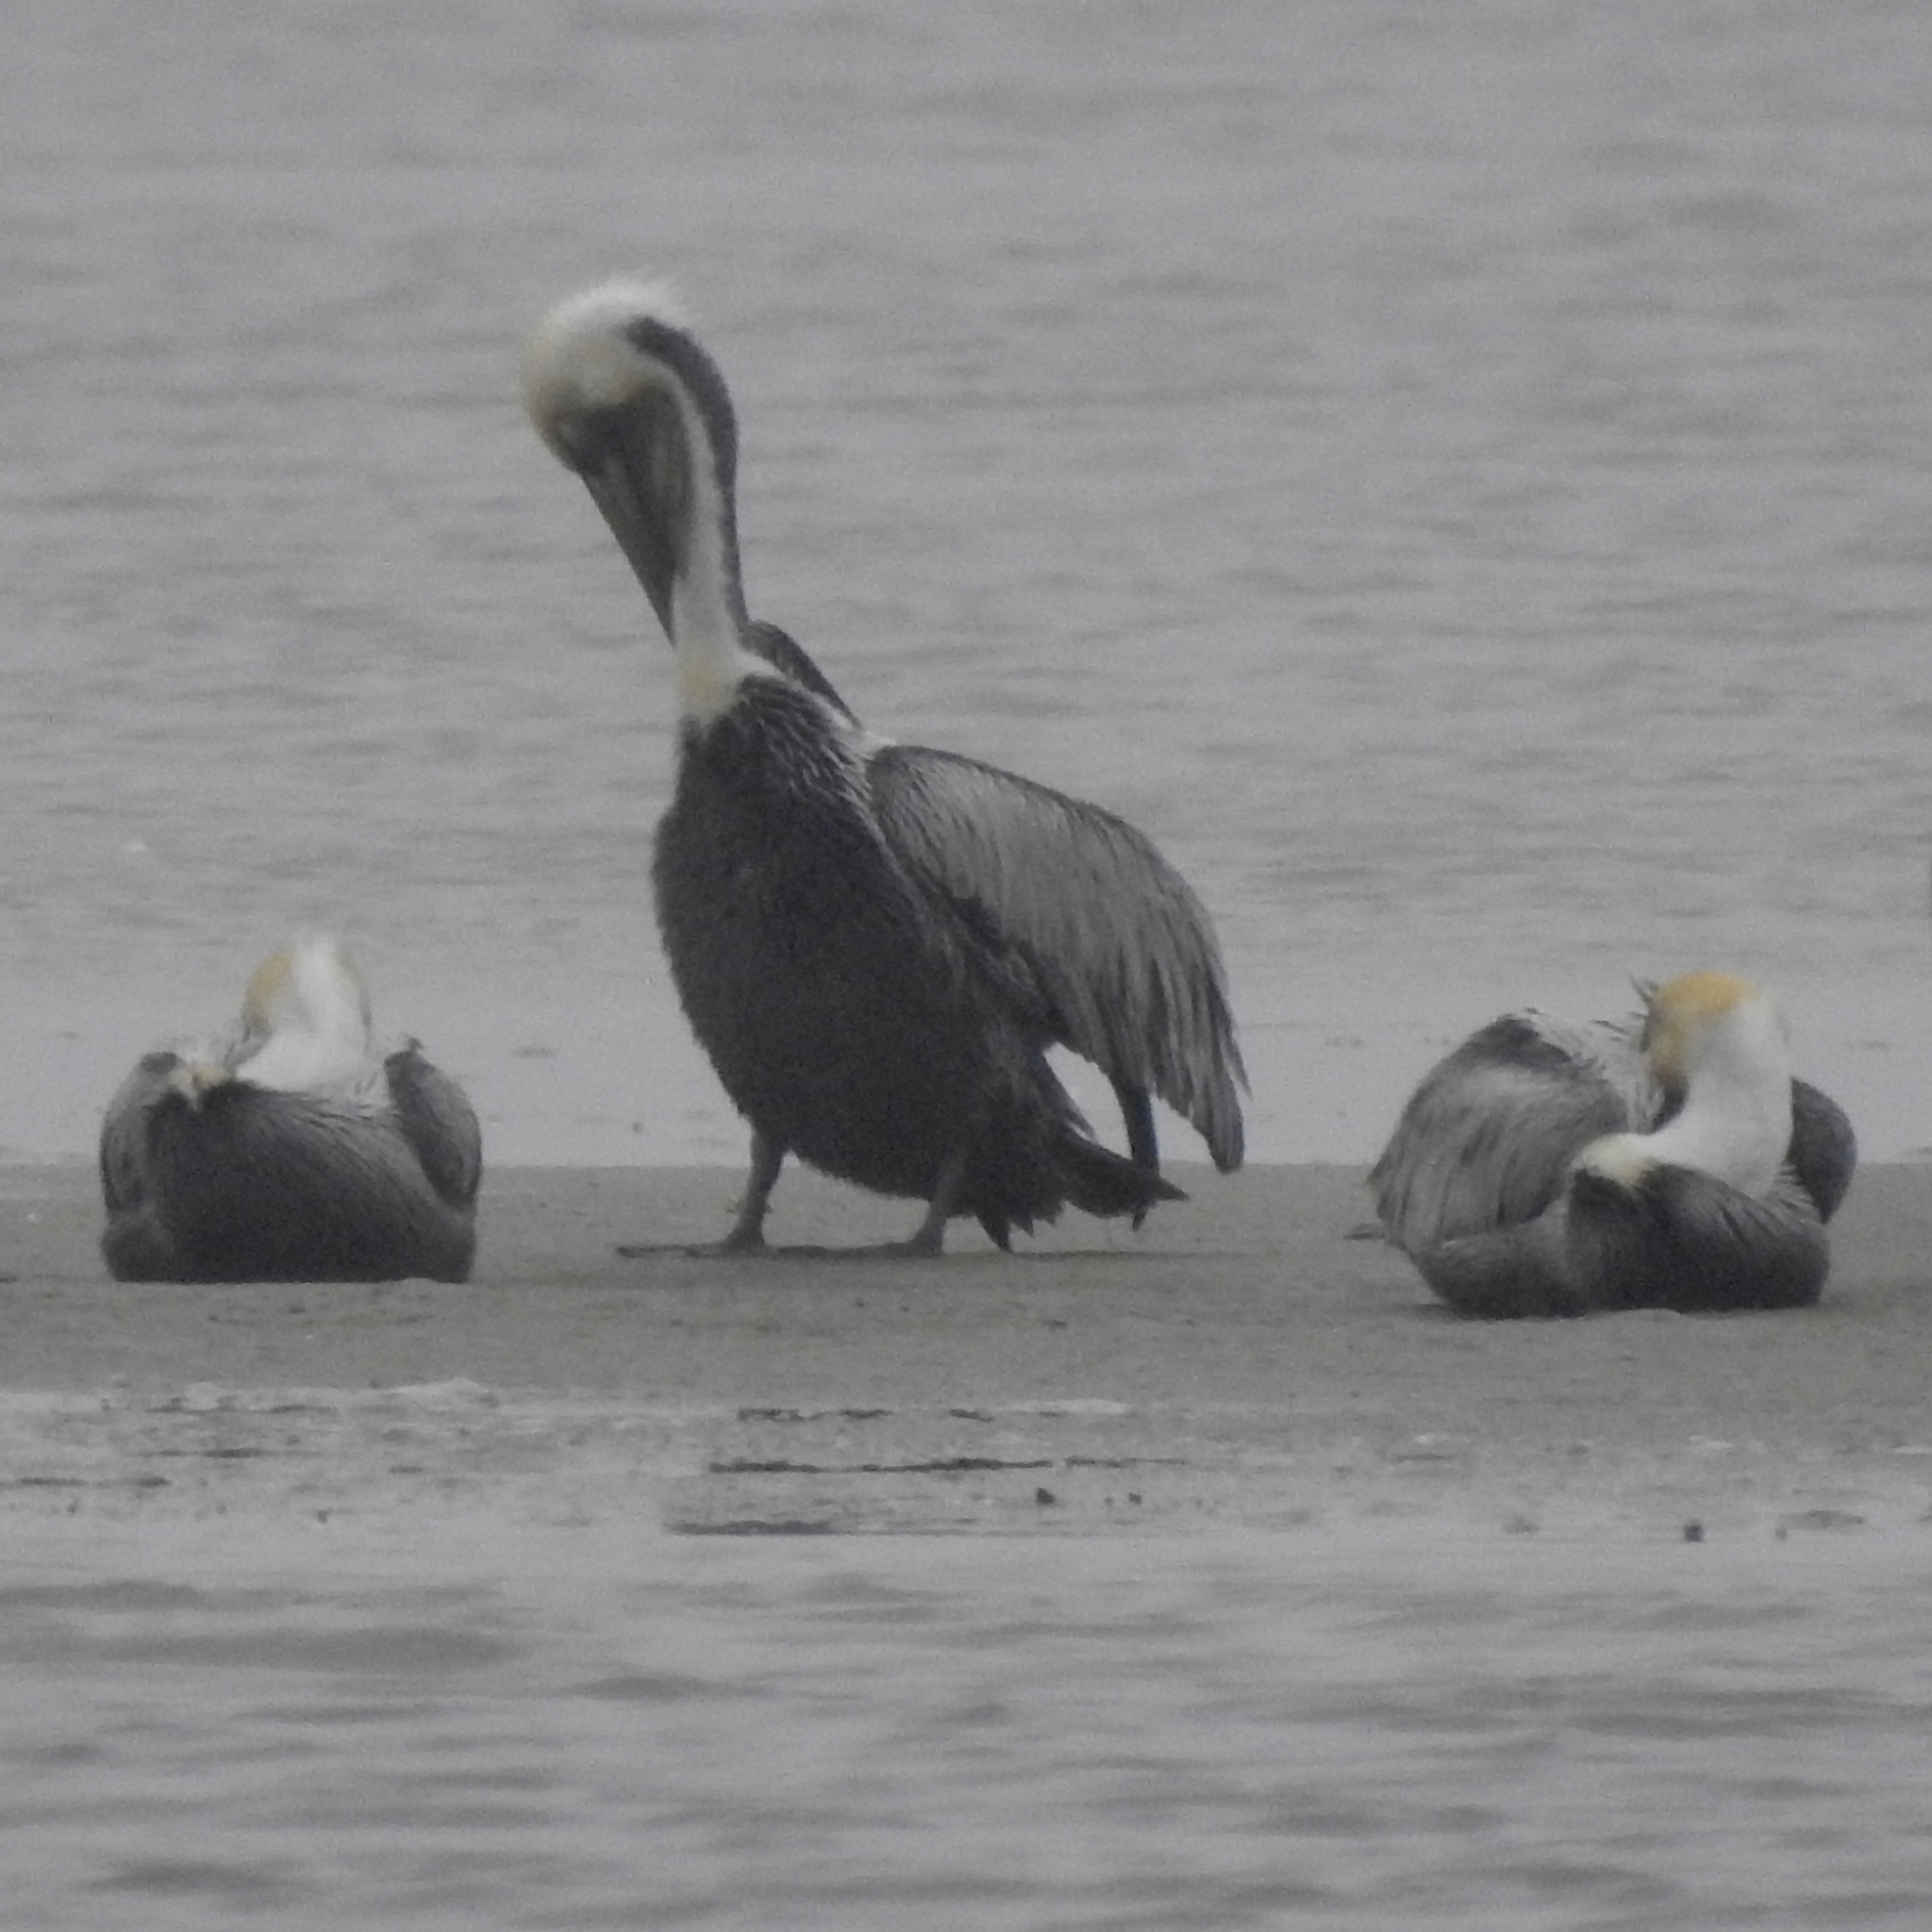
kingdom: Animalia
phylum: Chordata
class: Aves
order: Pelecaniformes
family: Pelecanidae
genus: Pelecanus
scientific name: Pelecanus occidentalis
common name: Brown pelican
